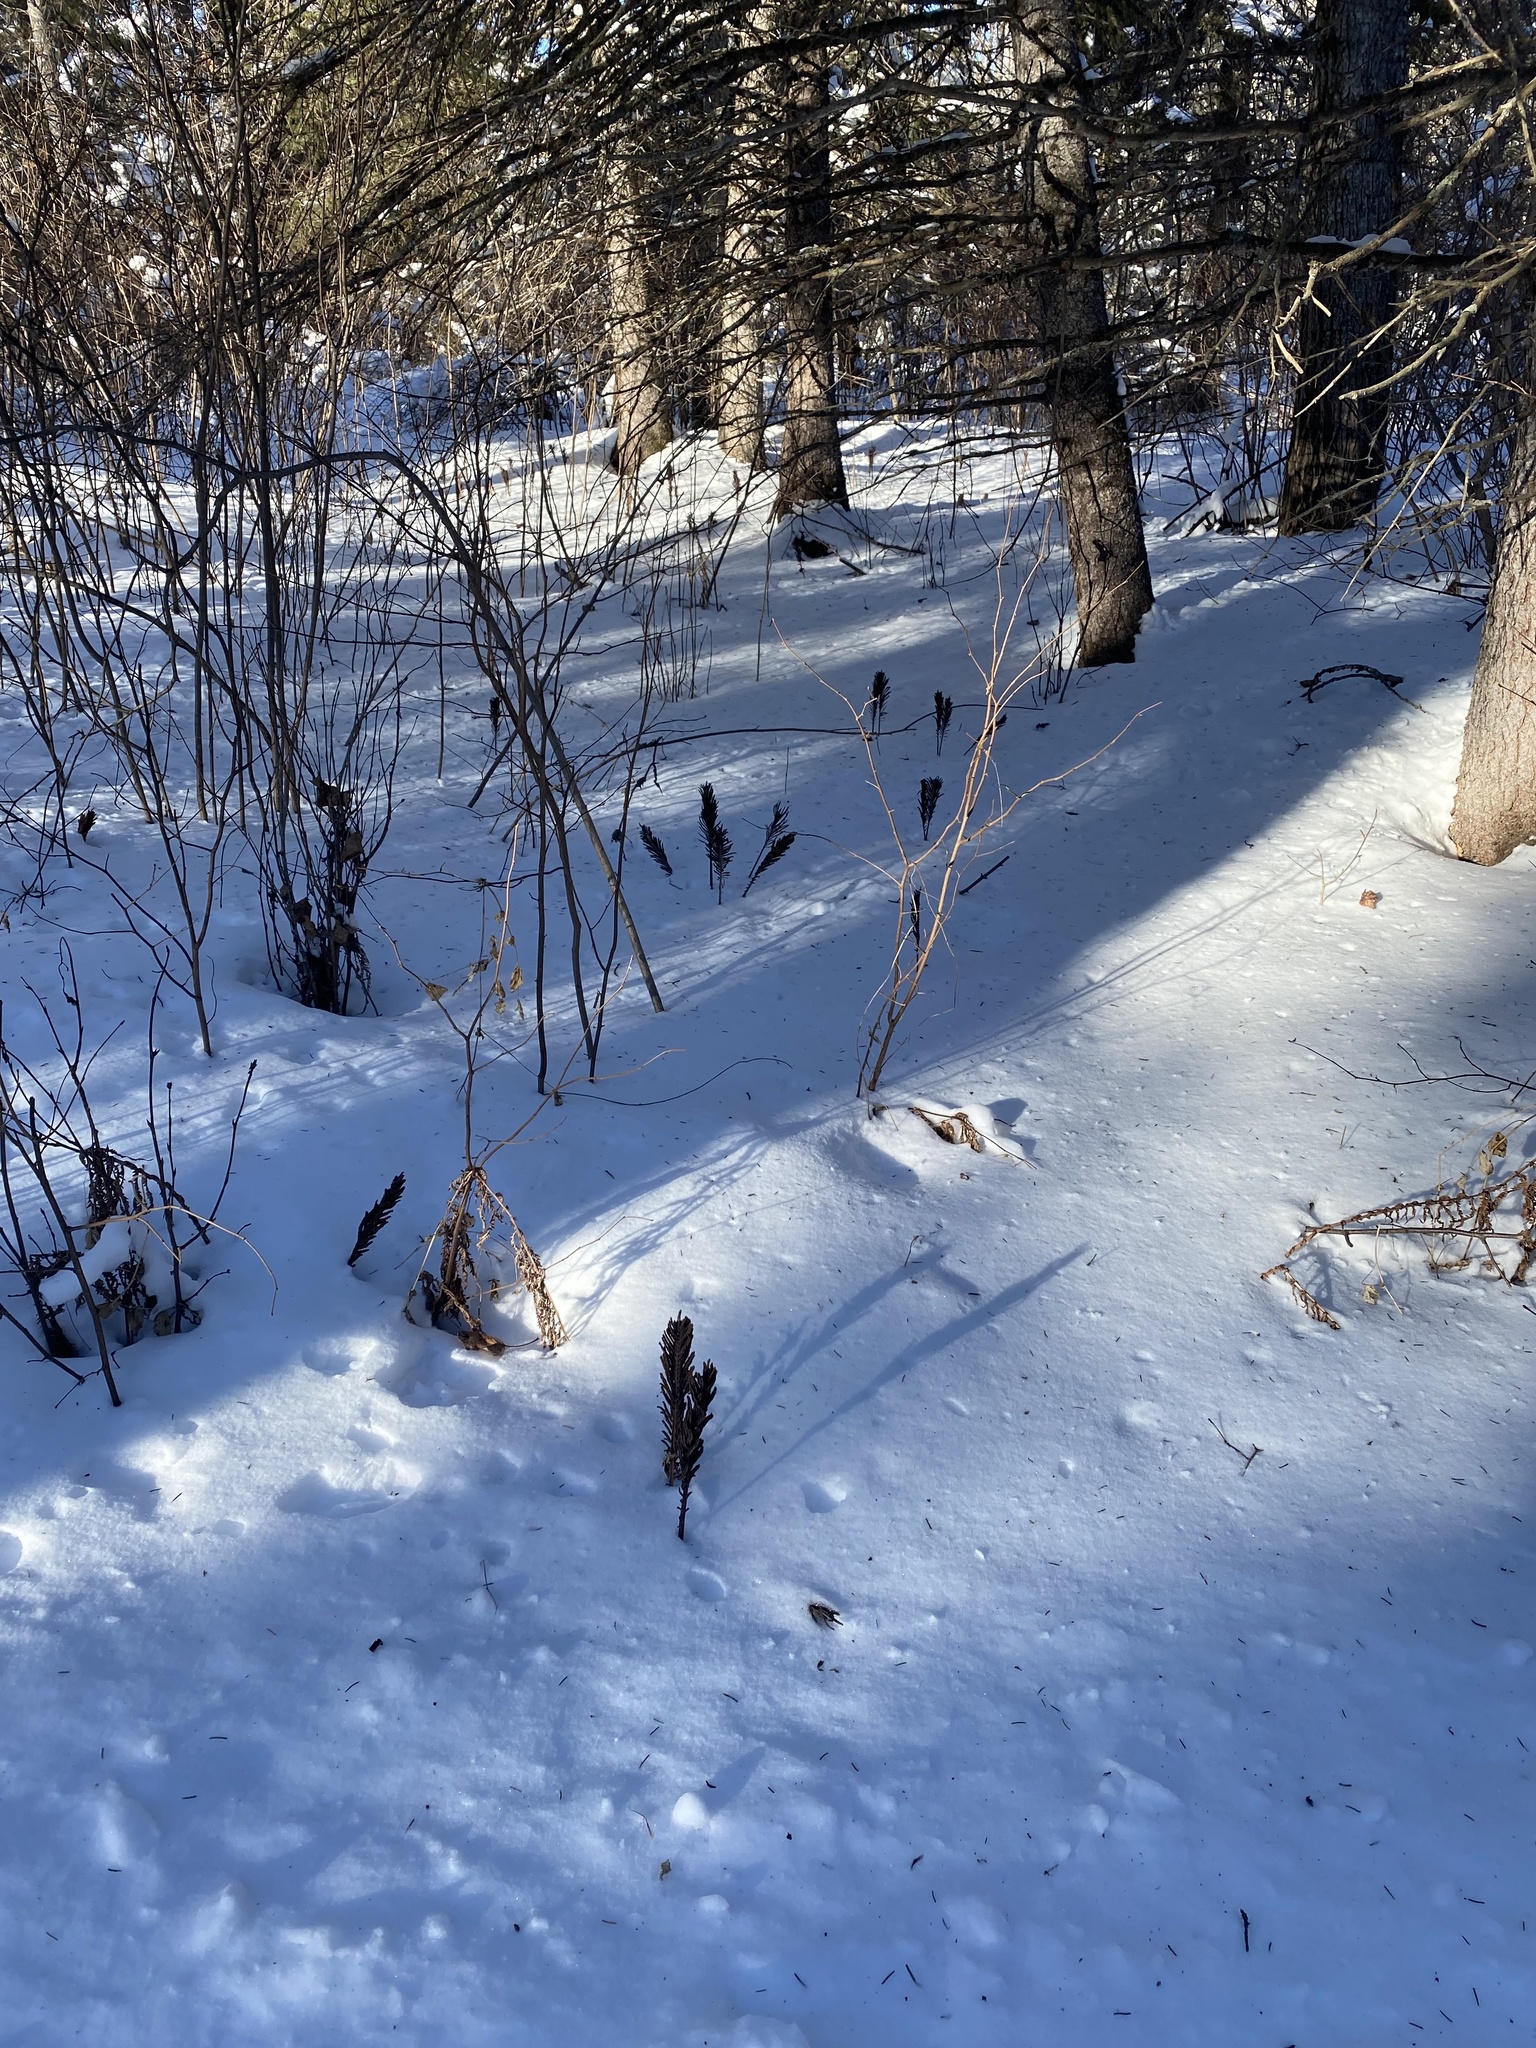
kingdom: Plantae
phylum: Tracheophyta
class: Polypodiopsida
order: Polypodiales
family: Onocleaceae
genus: Matteuccia
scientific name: Matteuccia struthiopteris
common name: Ostrich fern
